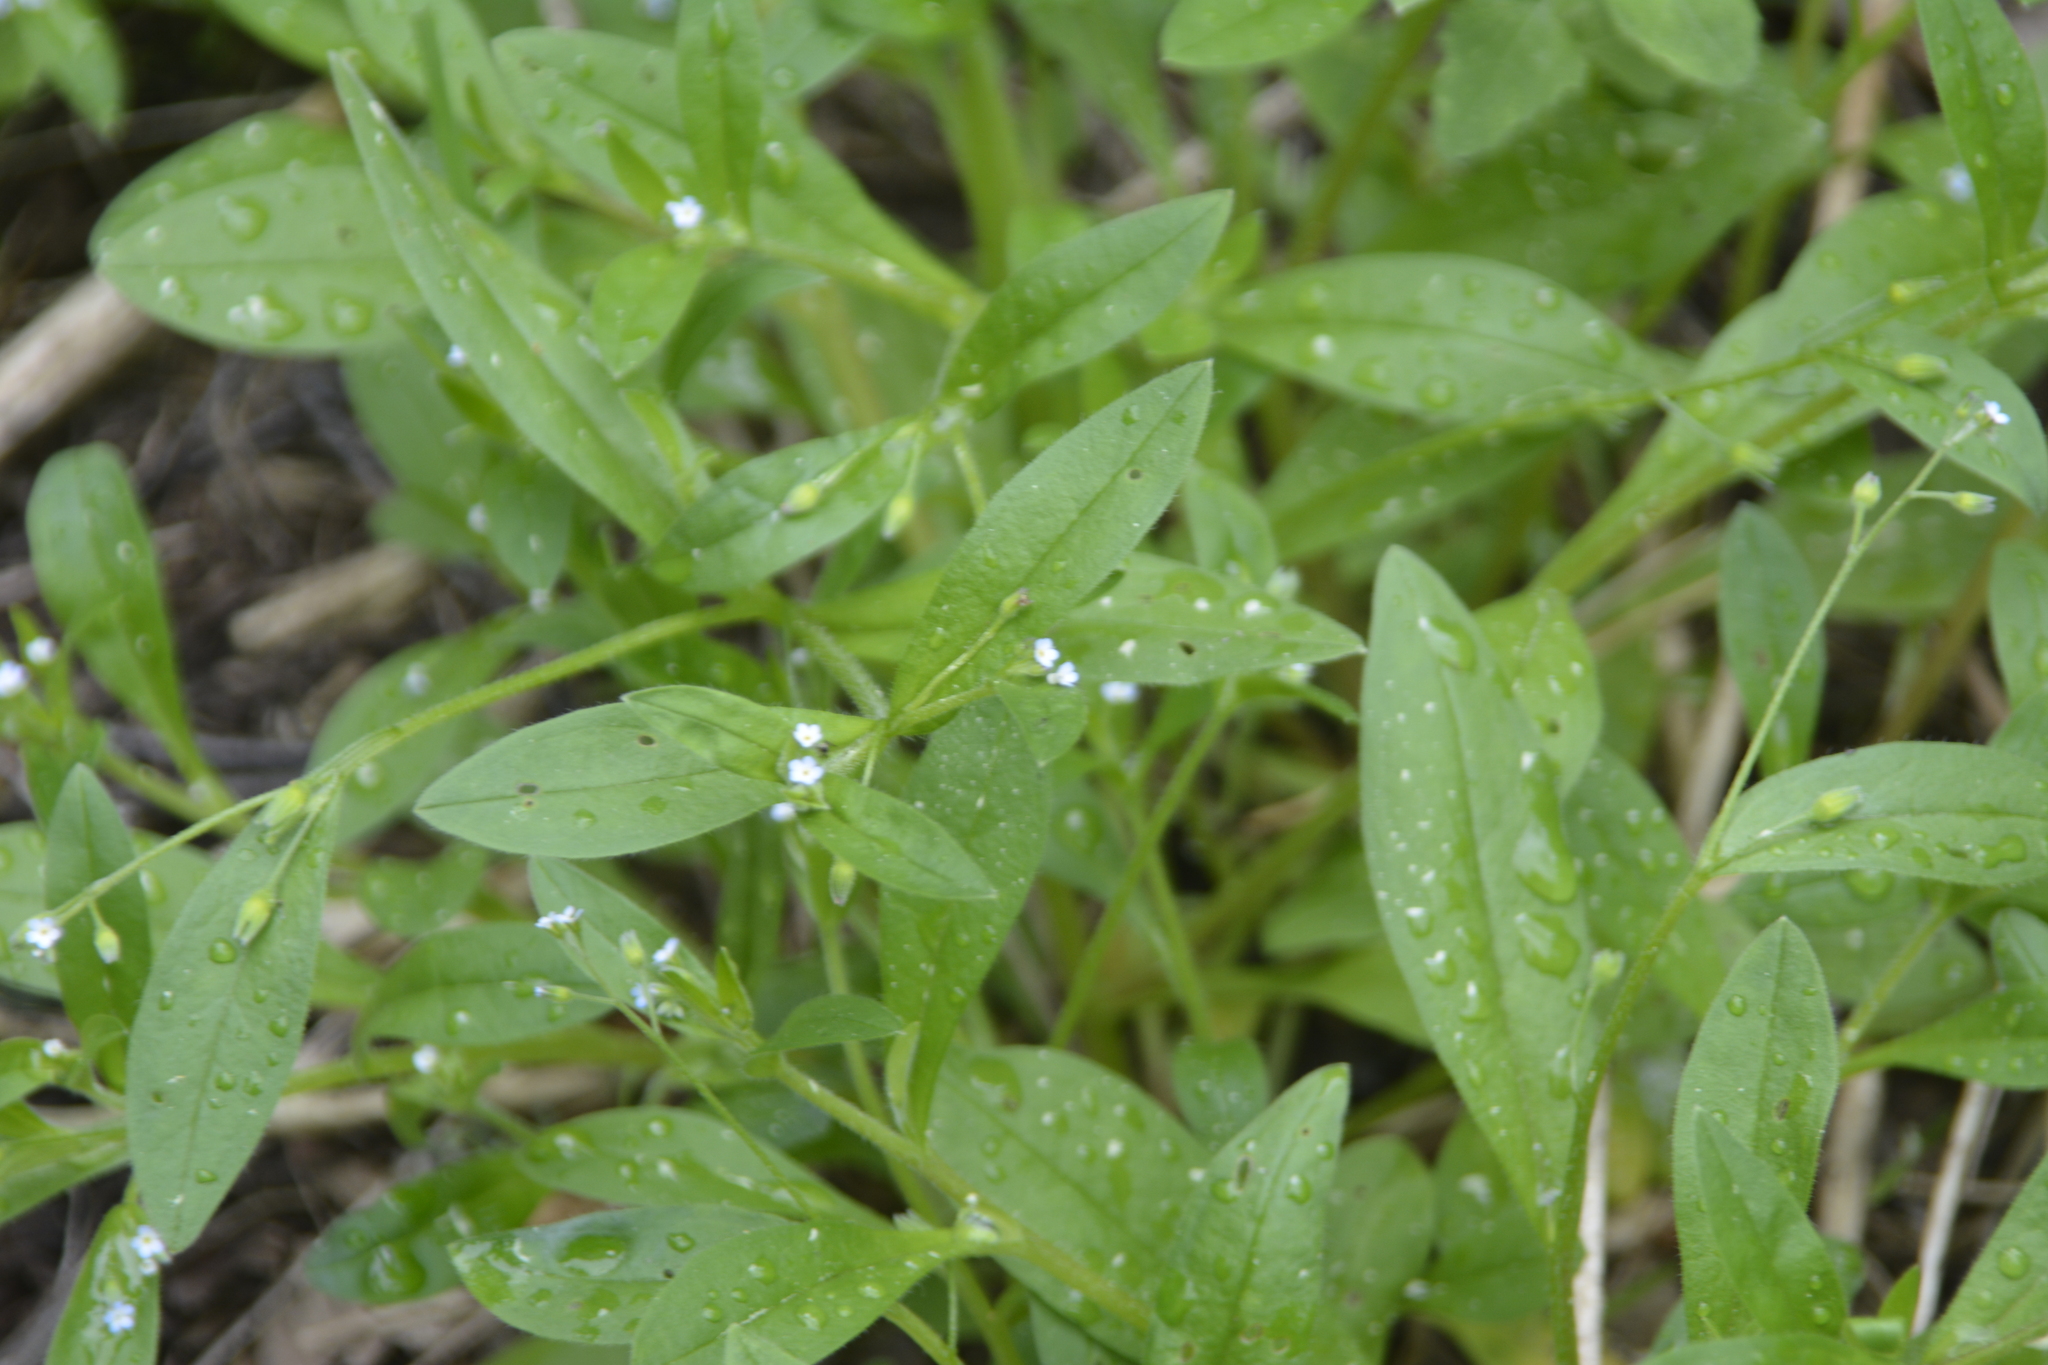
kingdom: Plantae
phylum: Tracheophyta
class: Magnoliopsida
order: Boraginales
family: Boraginaceae
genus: Myosotis
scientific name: Myosotis sparsiflora
